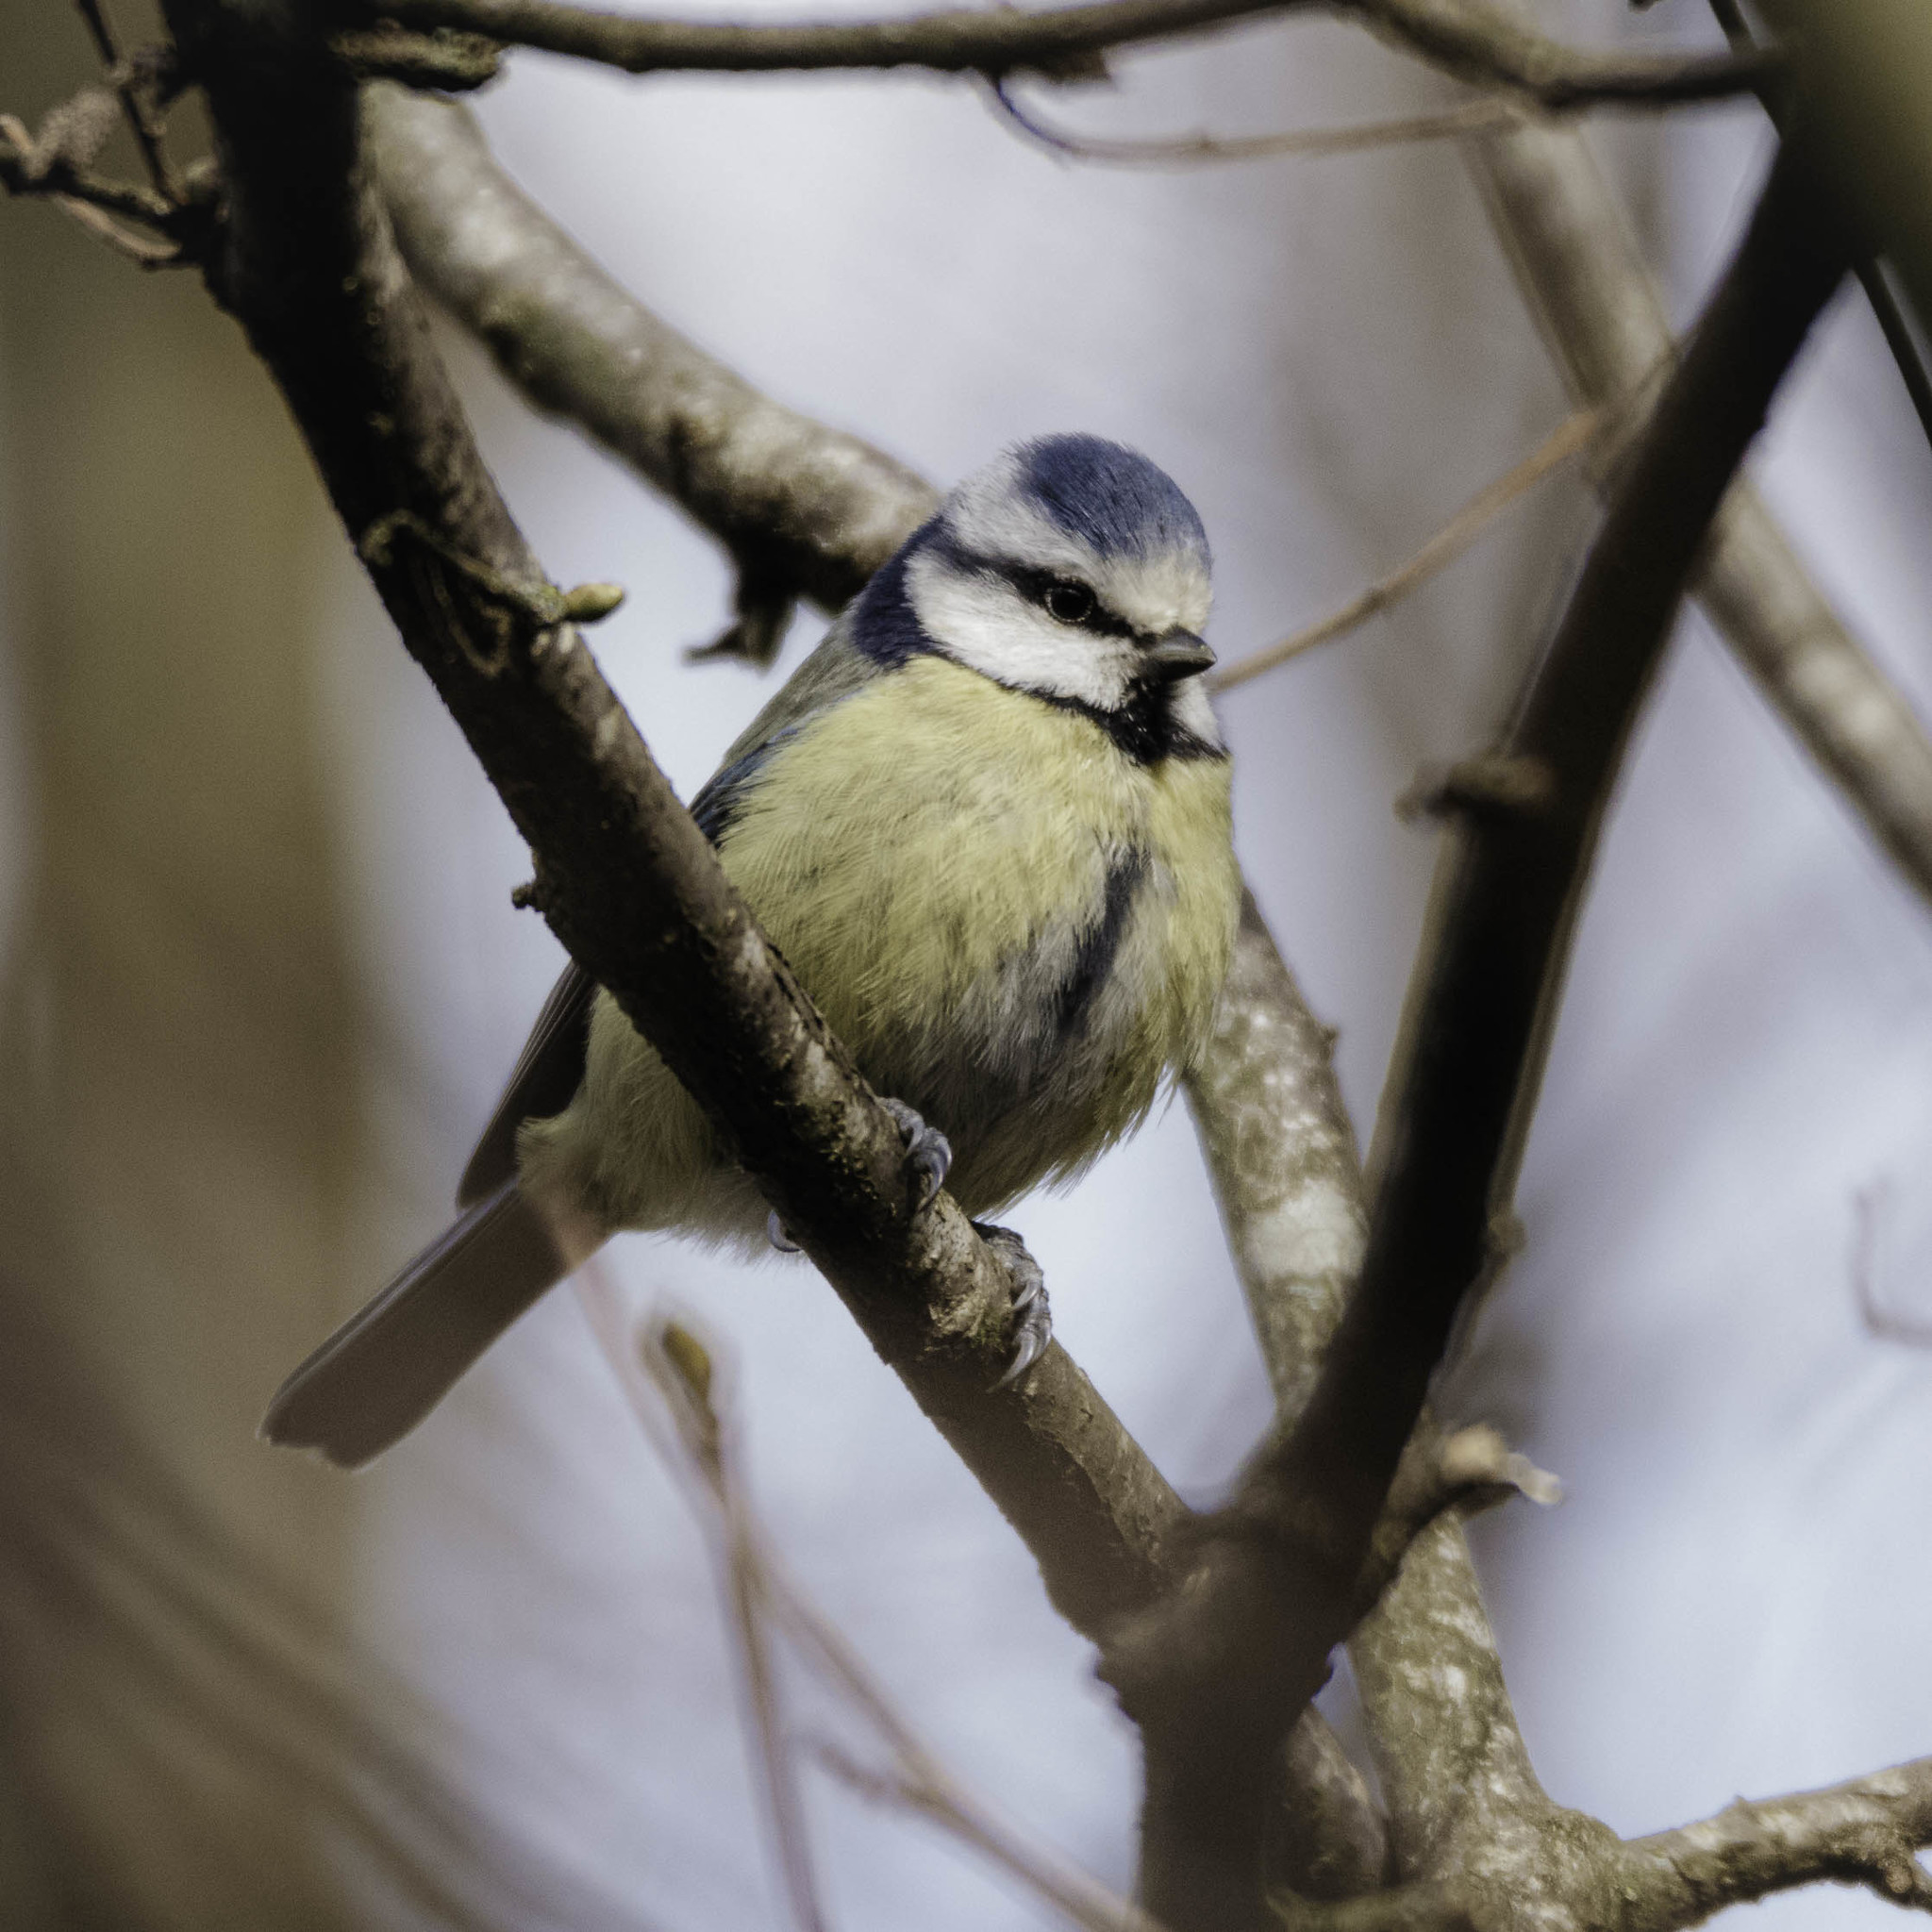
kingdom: Animalia
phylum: Chordata
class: Aves
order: Passeriformes
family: Paridae
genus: Cyanistes
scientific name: Cyanistes caeruleus
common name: Eurasian blue tit
